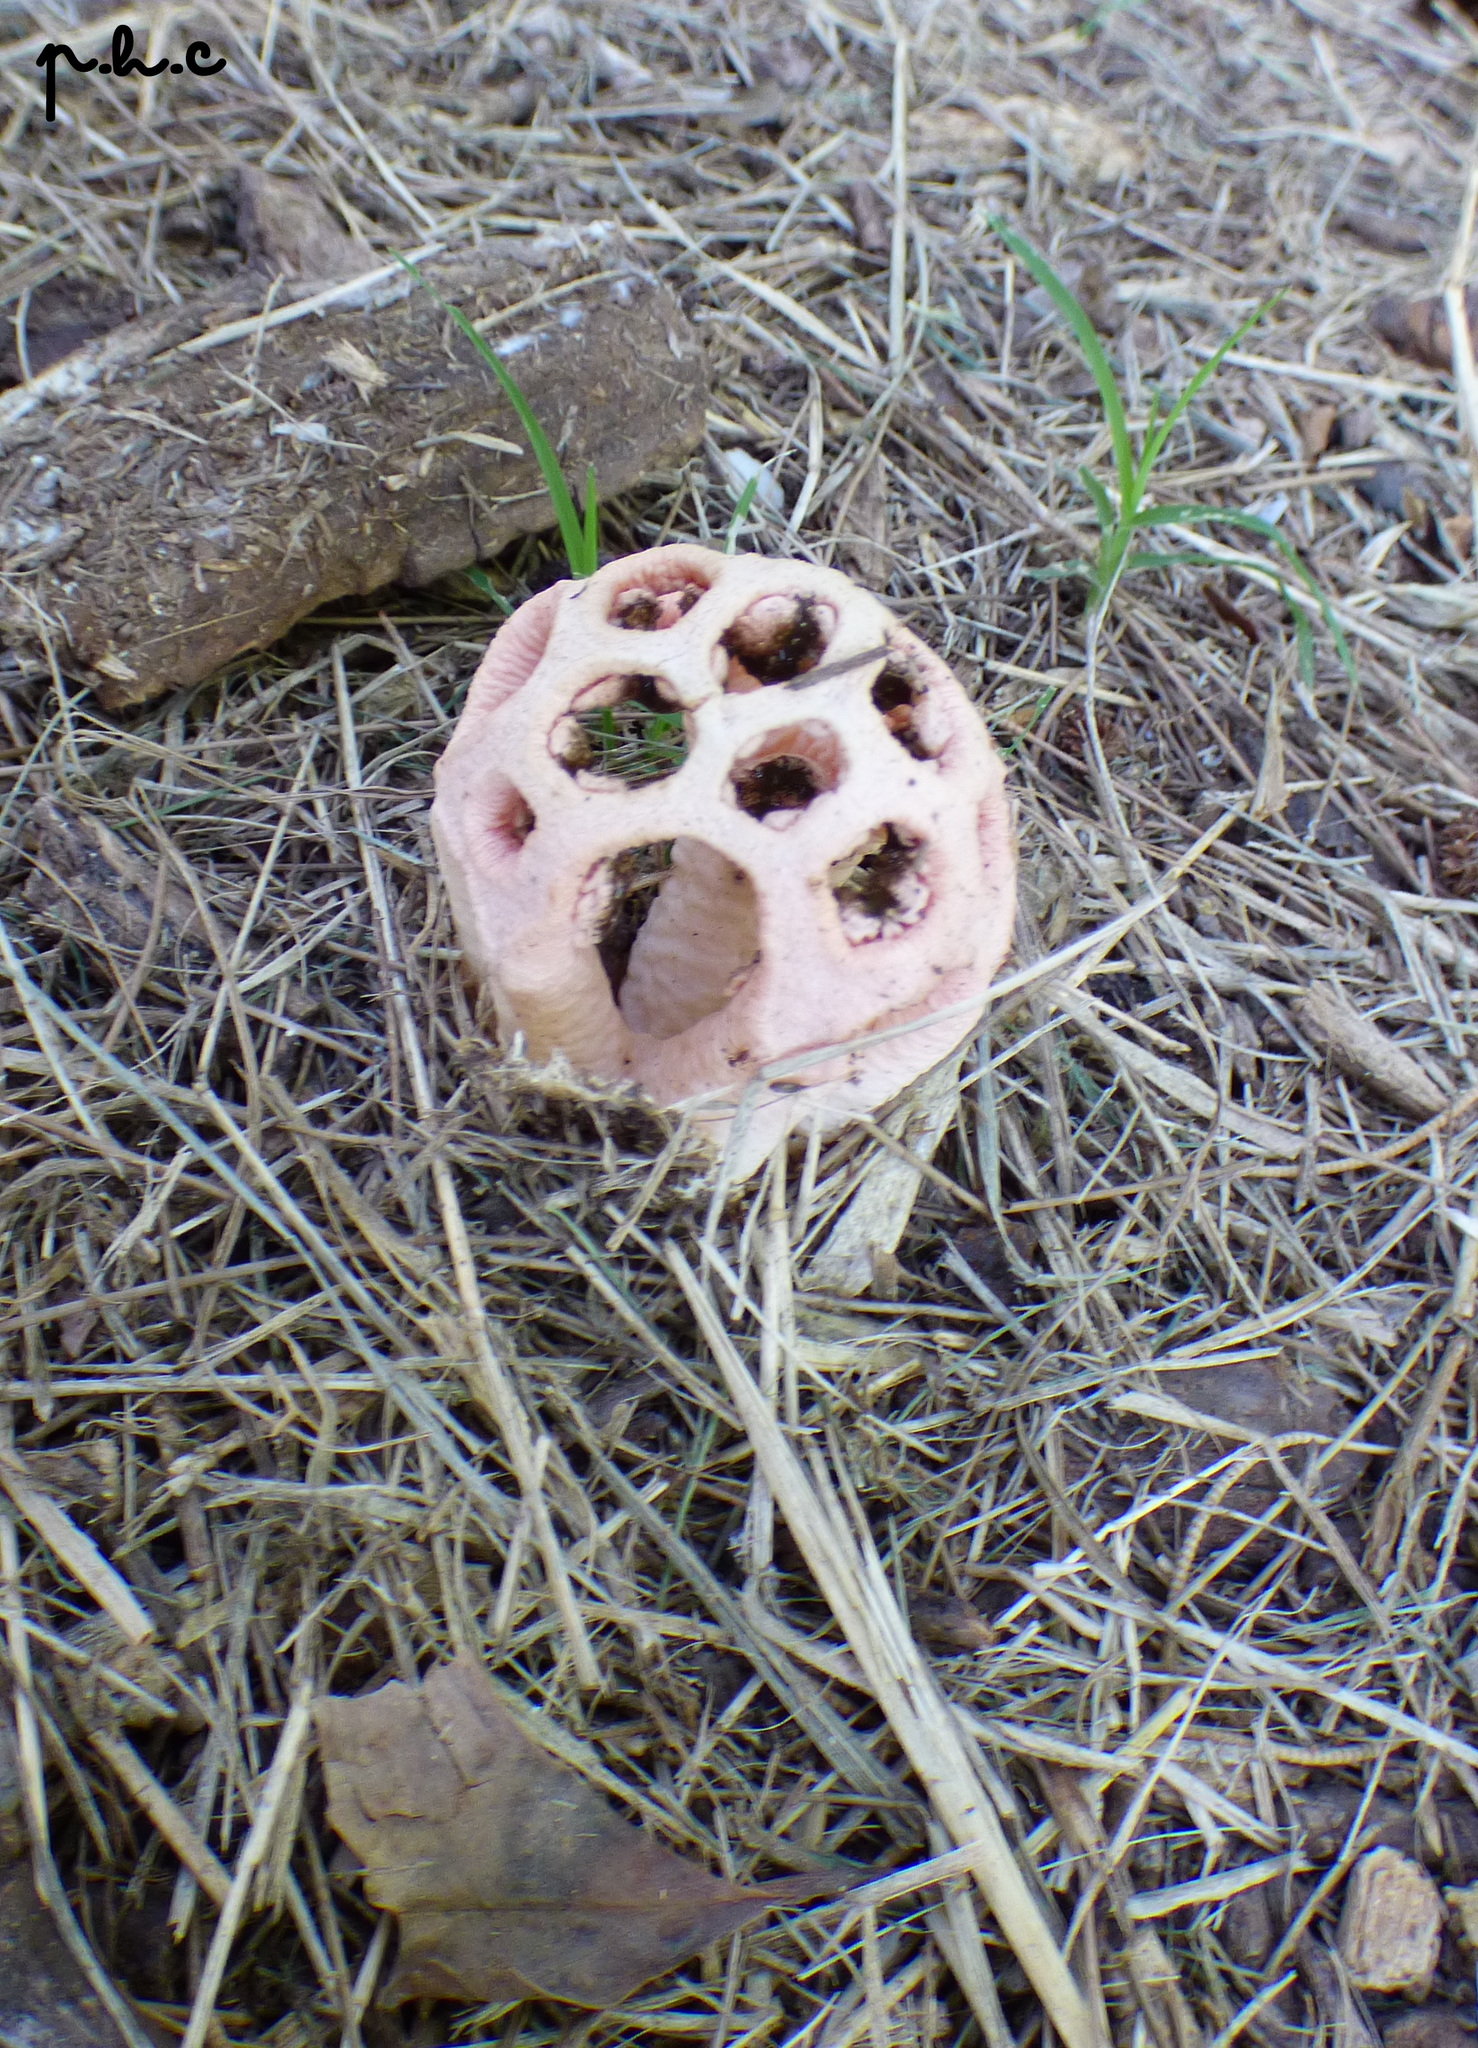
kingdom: Fungi
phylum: Basidiomycota
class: Agaricomycetes
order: Phallales
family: Phallaceae
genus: Clathrus
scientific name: Clathrus argentinus
